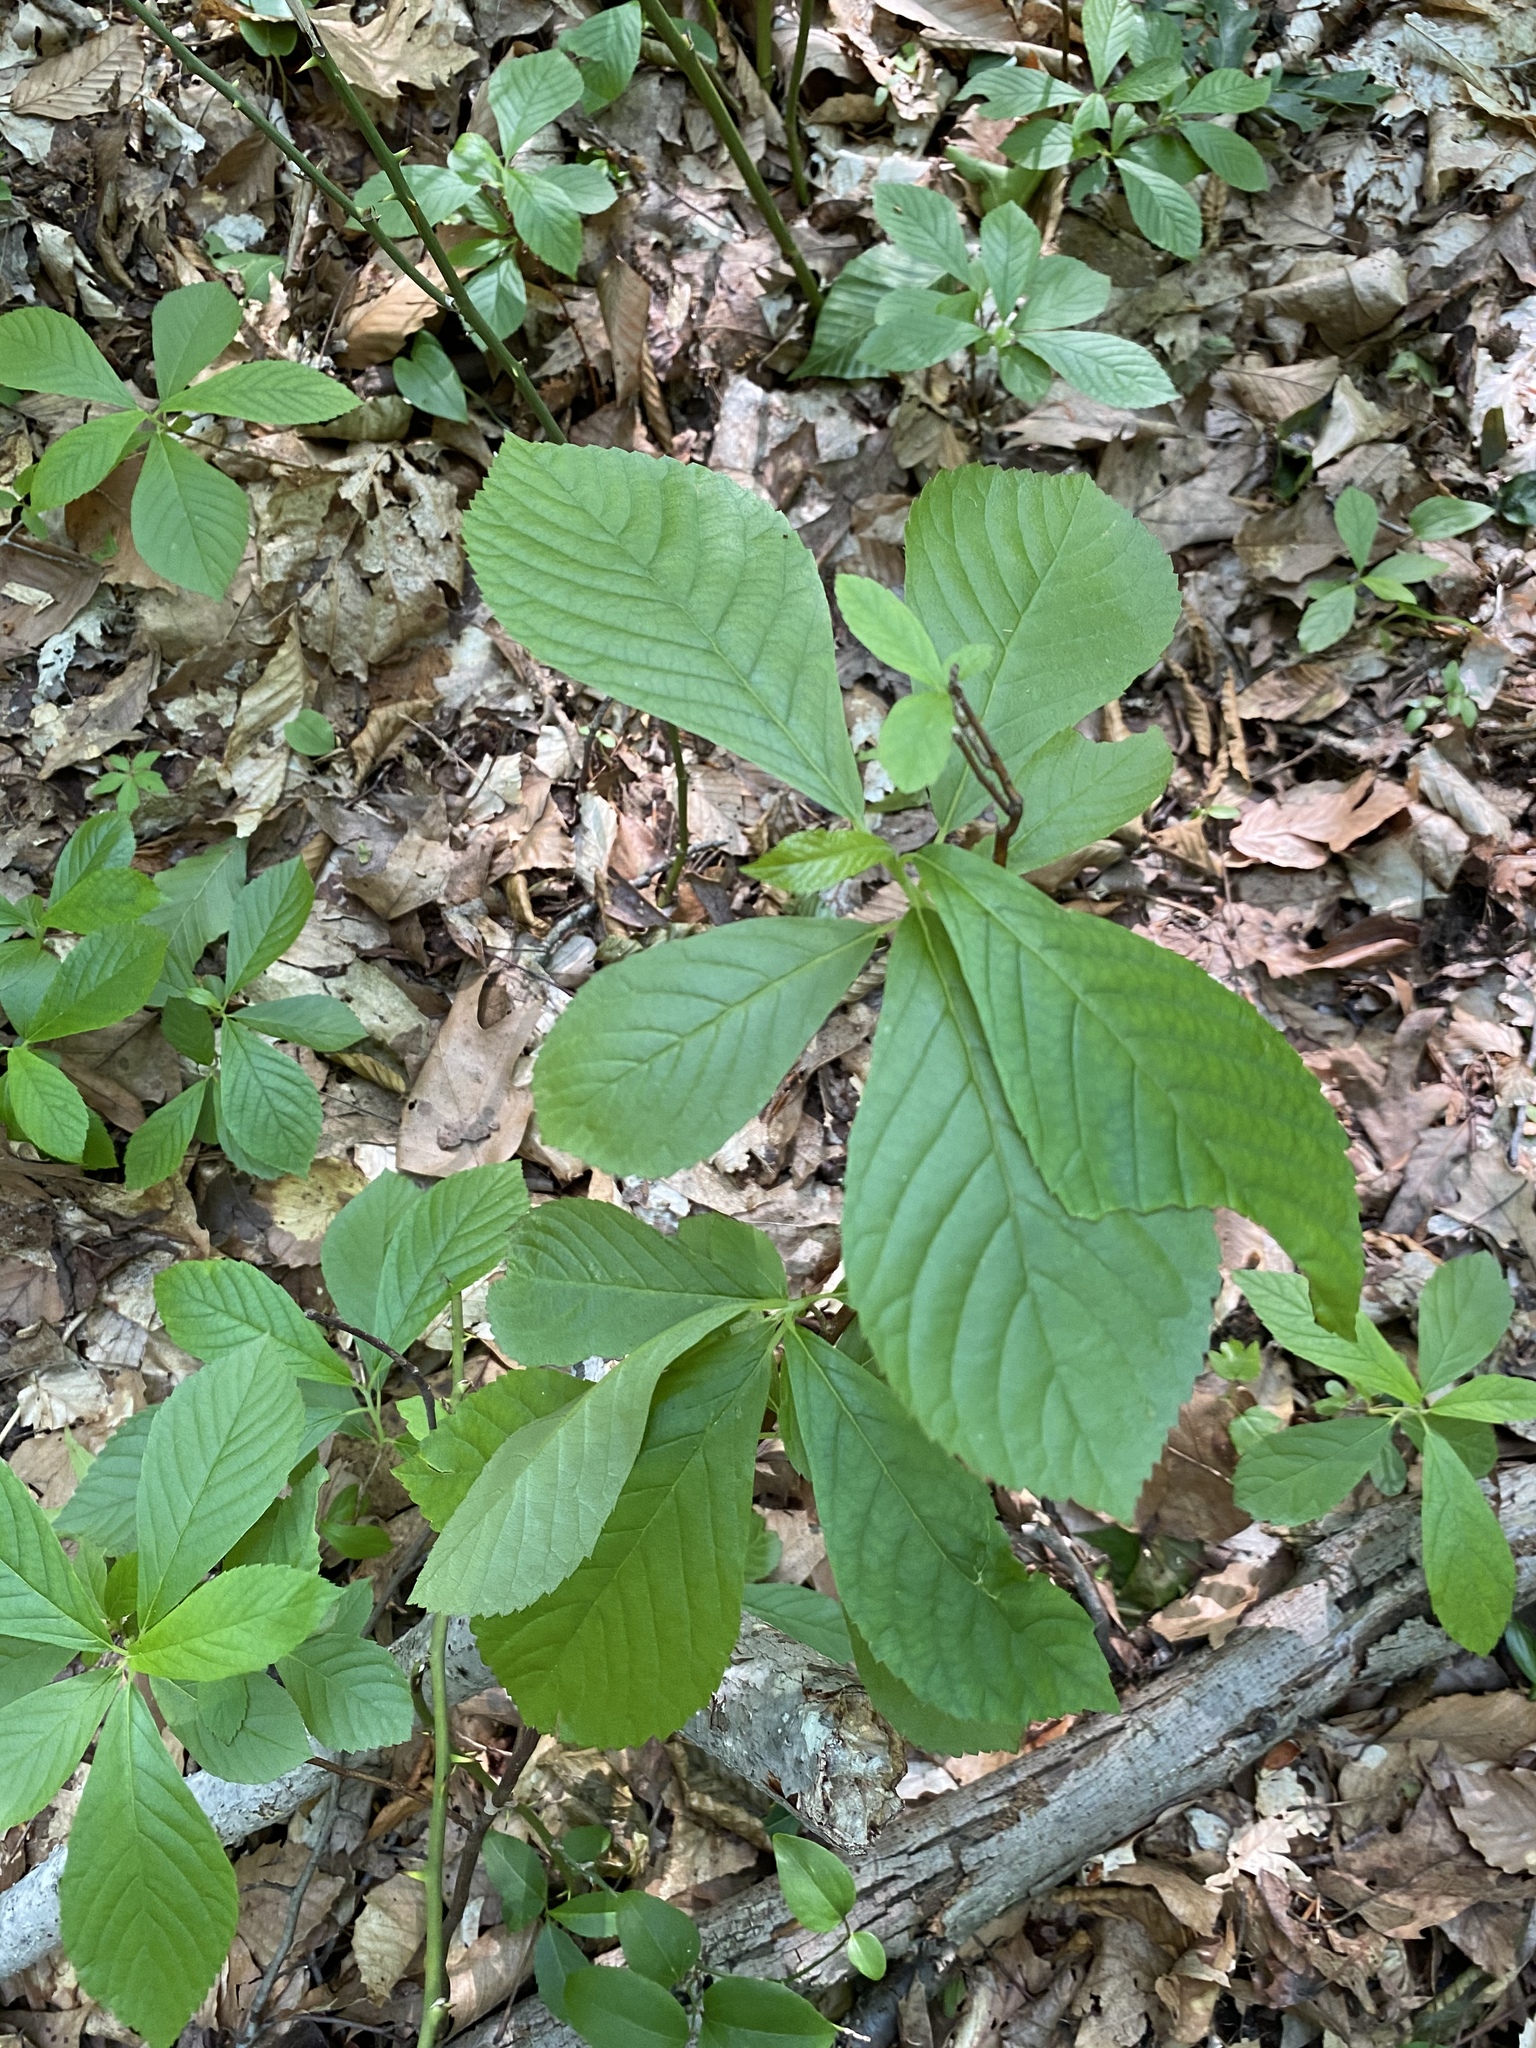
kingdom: Plantae
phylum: Tracheophyta
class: Magnoliopsida
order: Ericales
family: Clethraceae
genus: Clethra
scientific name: Clethra alnifolia
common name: Sweet pepperbush
